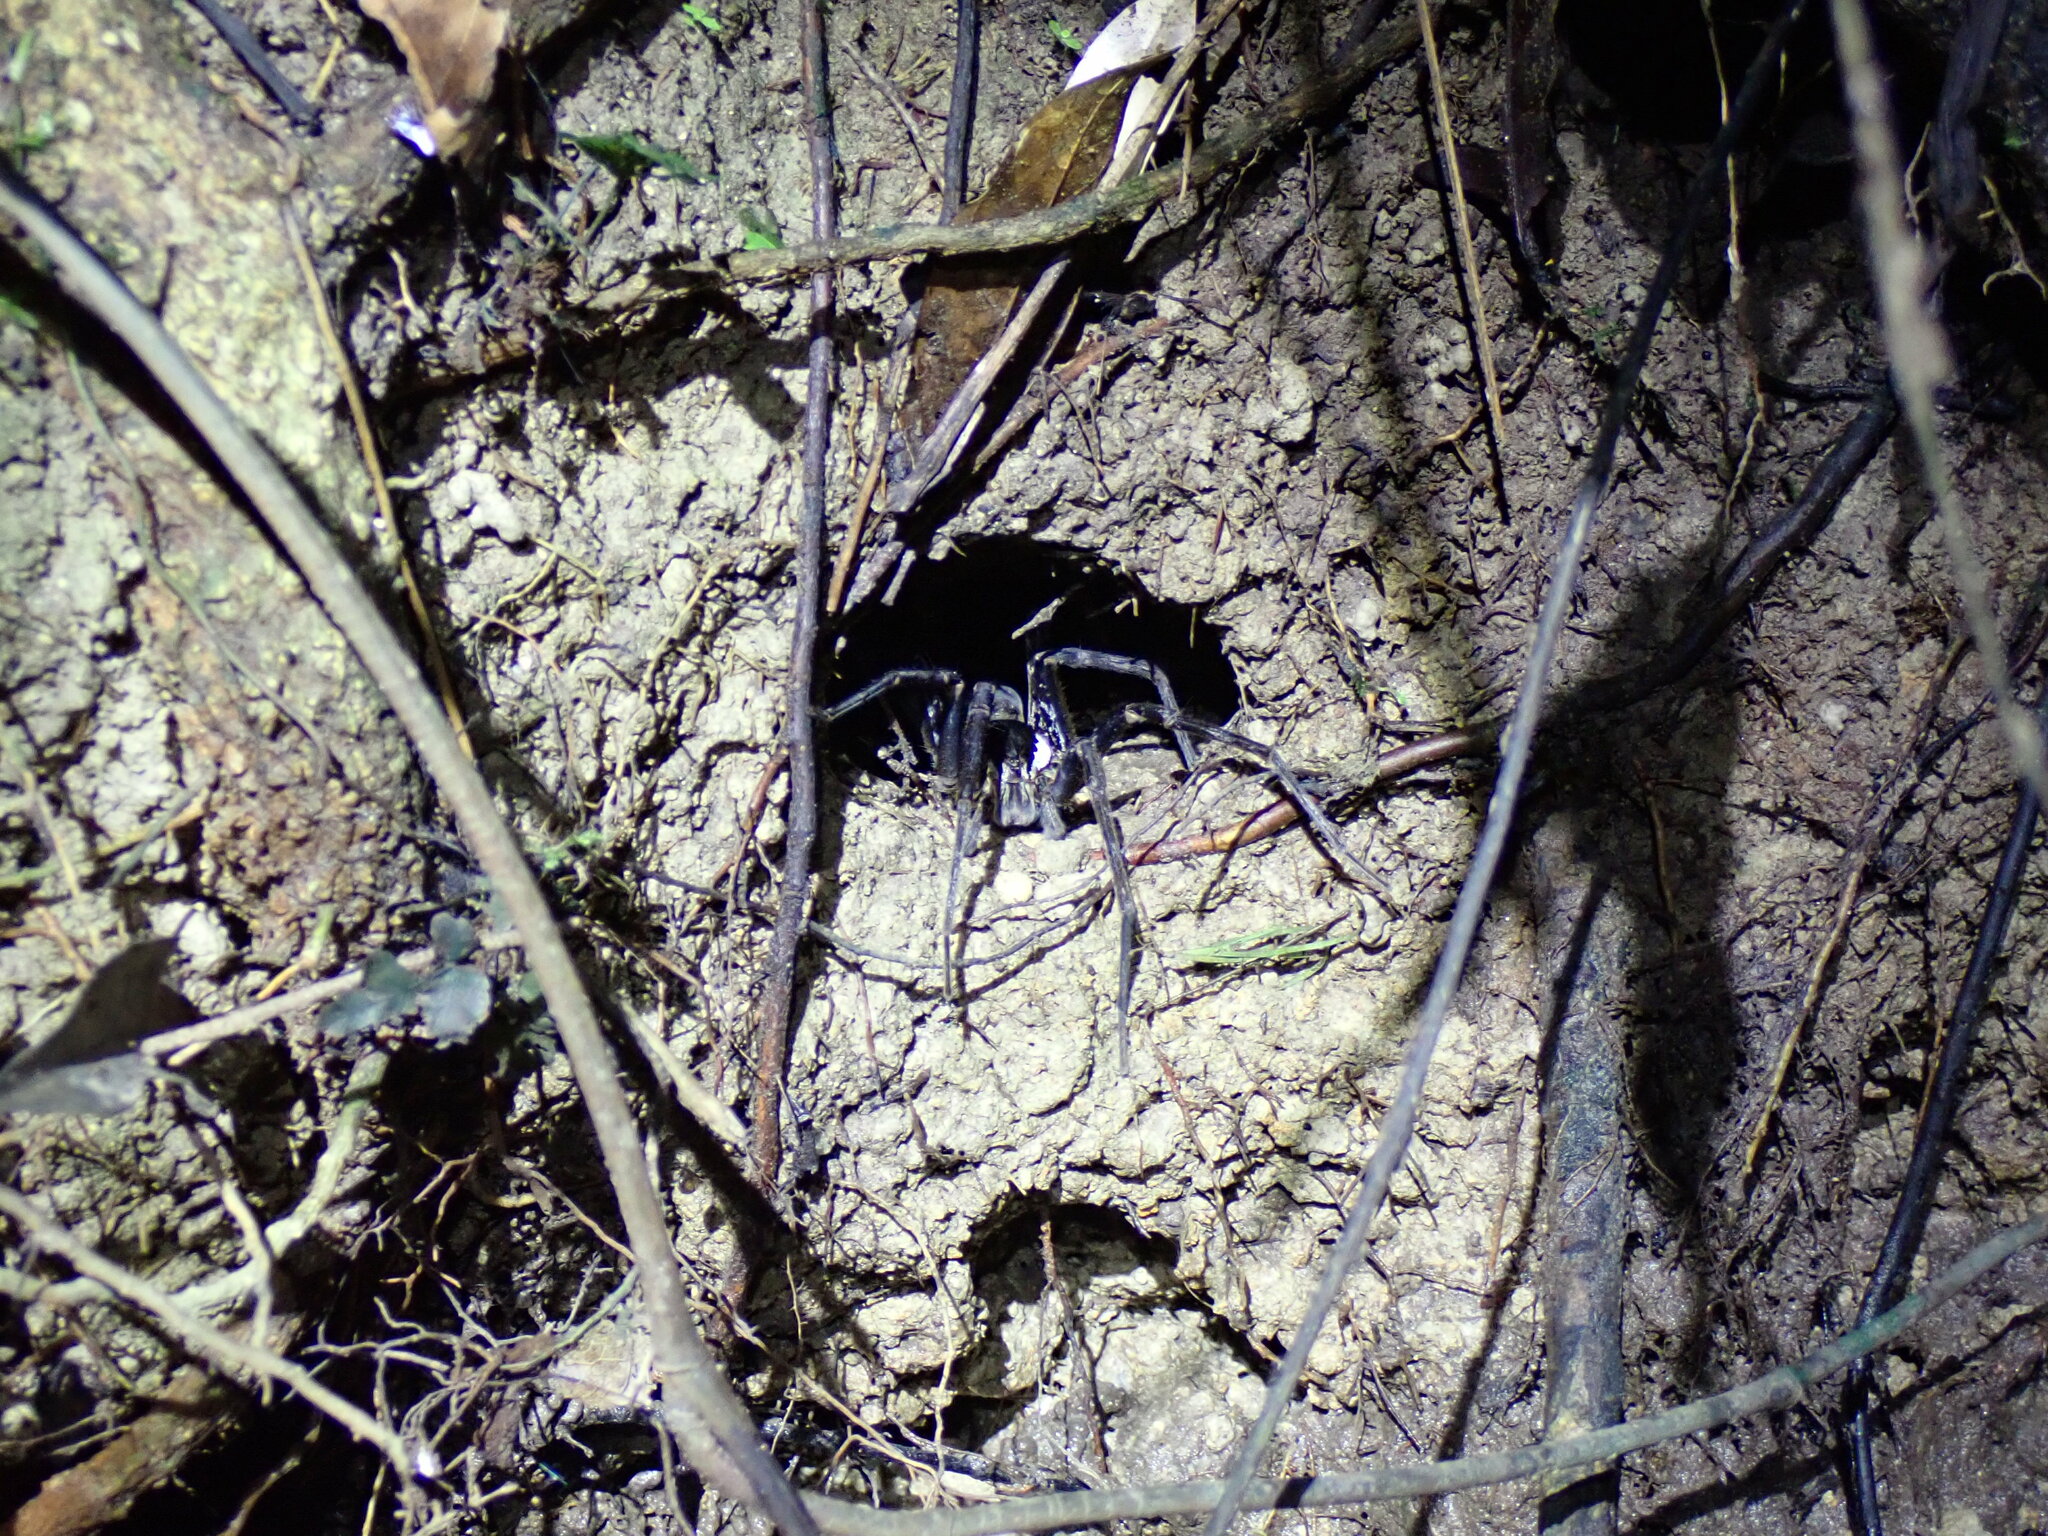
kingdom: Animalia
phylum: Arthropoda
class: Arachnida
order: Araneae
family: Ctenidae
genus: Ancylometes
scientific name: Ancylometes
